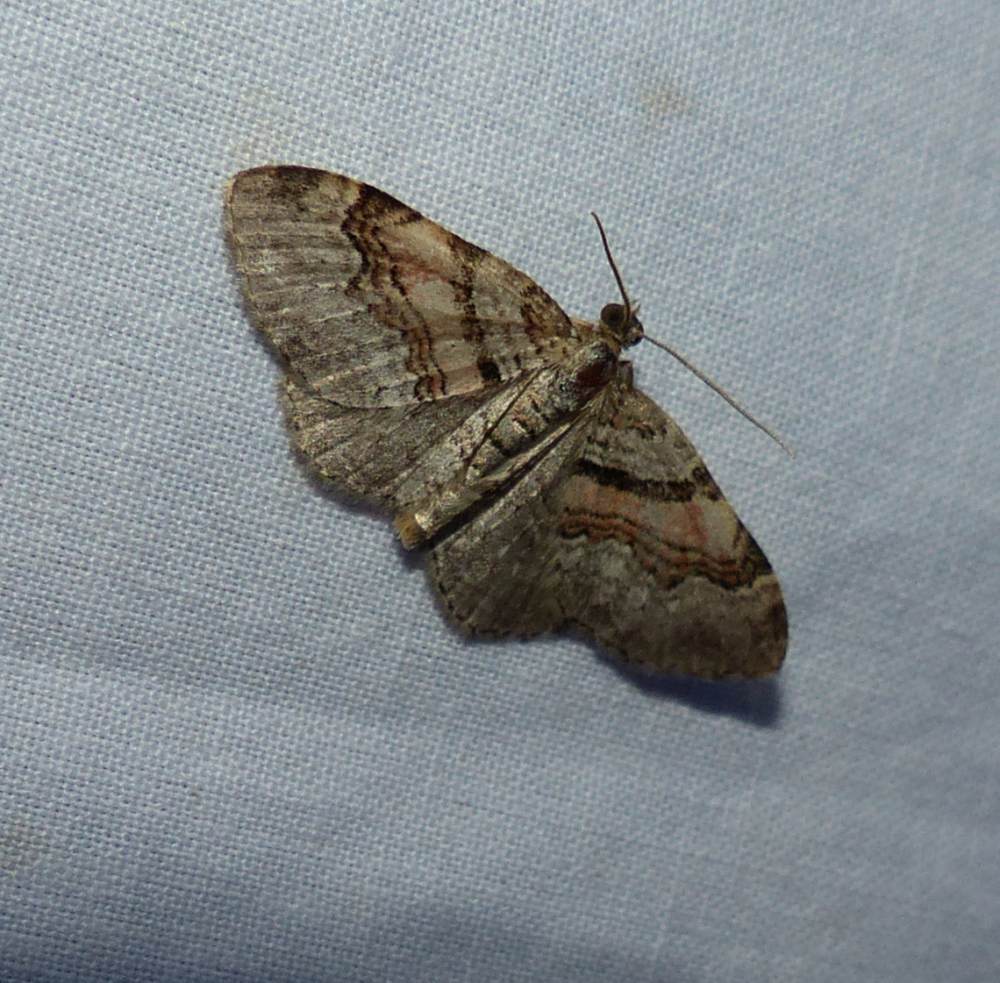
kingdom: Animalia
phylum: Arthropoda
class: Insecta
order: Lepidoptera
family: Geometridae
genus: Xanthorhoe
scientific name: Xanthorhoe labradorensis
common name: Labrador carpet
